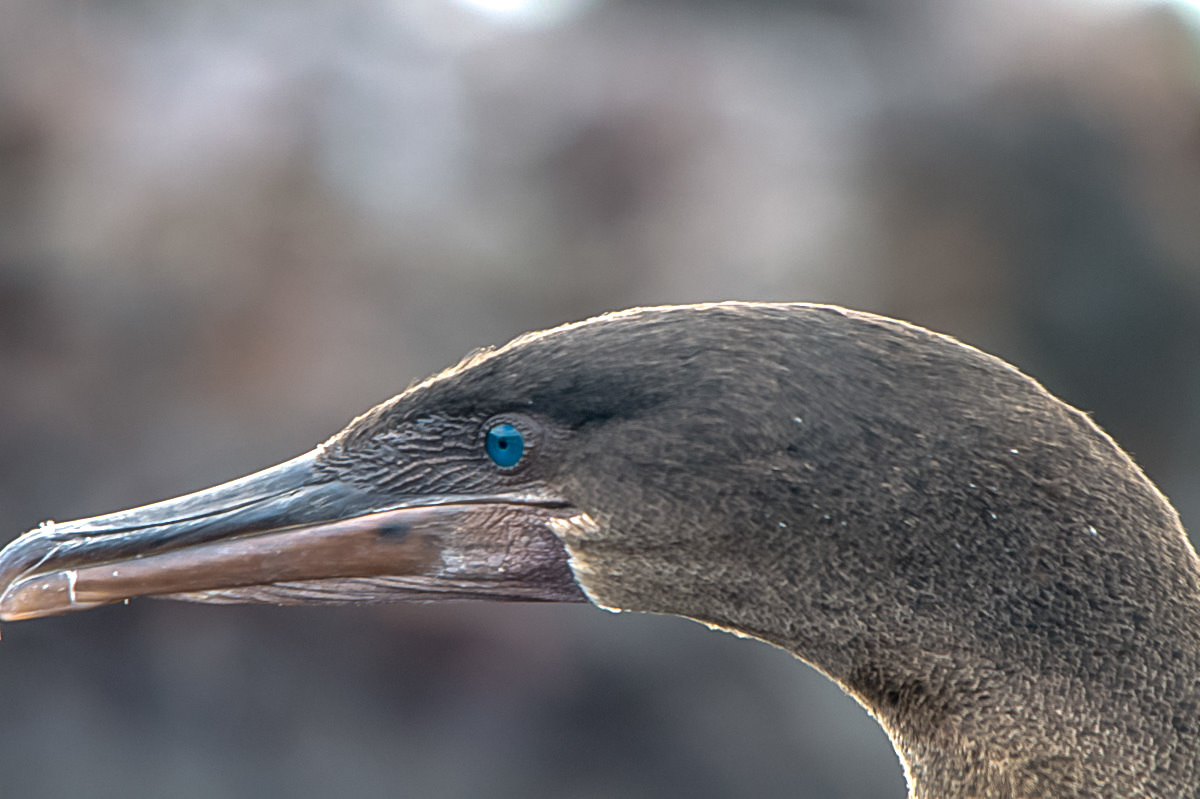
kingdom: Animalia
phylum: Chordata
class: Aves
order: Suliformes
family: Phalacrocoracidae
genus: Phalacrocorax
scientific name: Phalacrocorax harrisi
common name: Flightless cormorant
